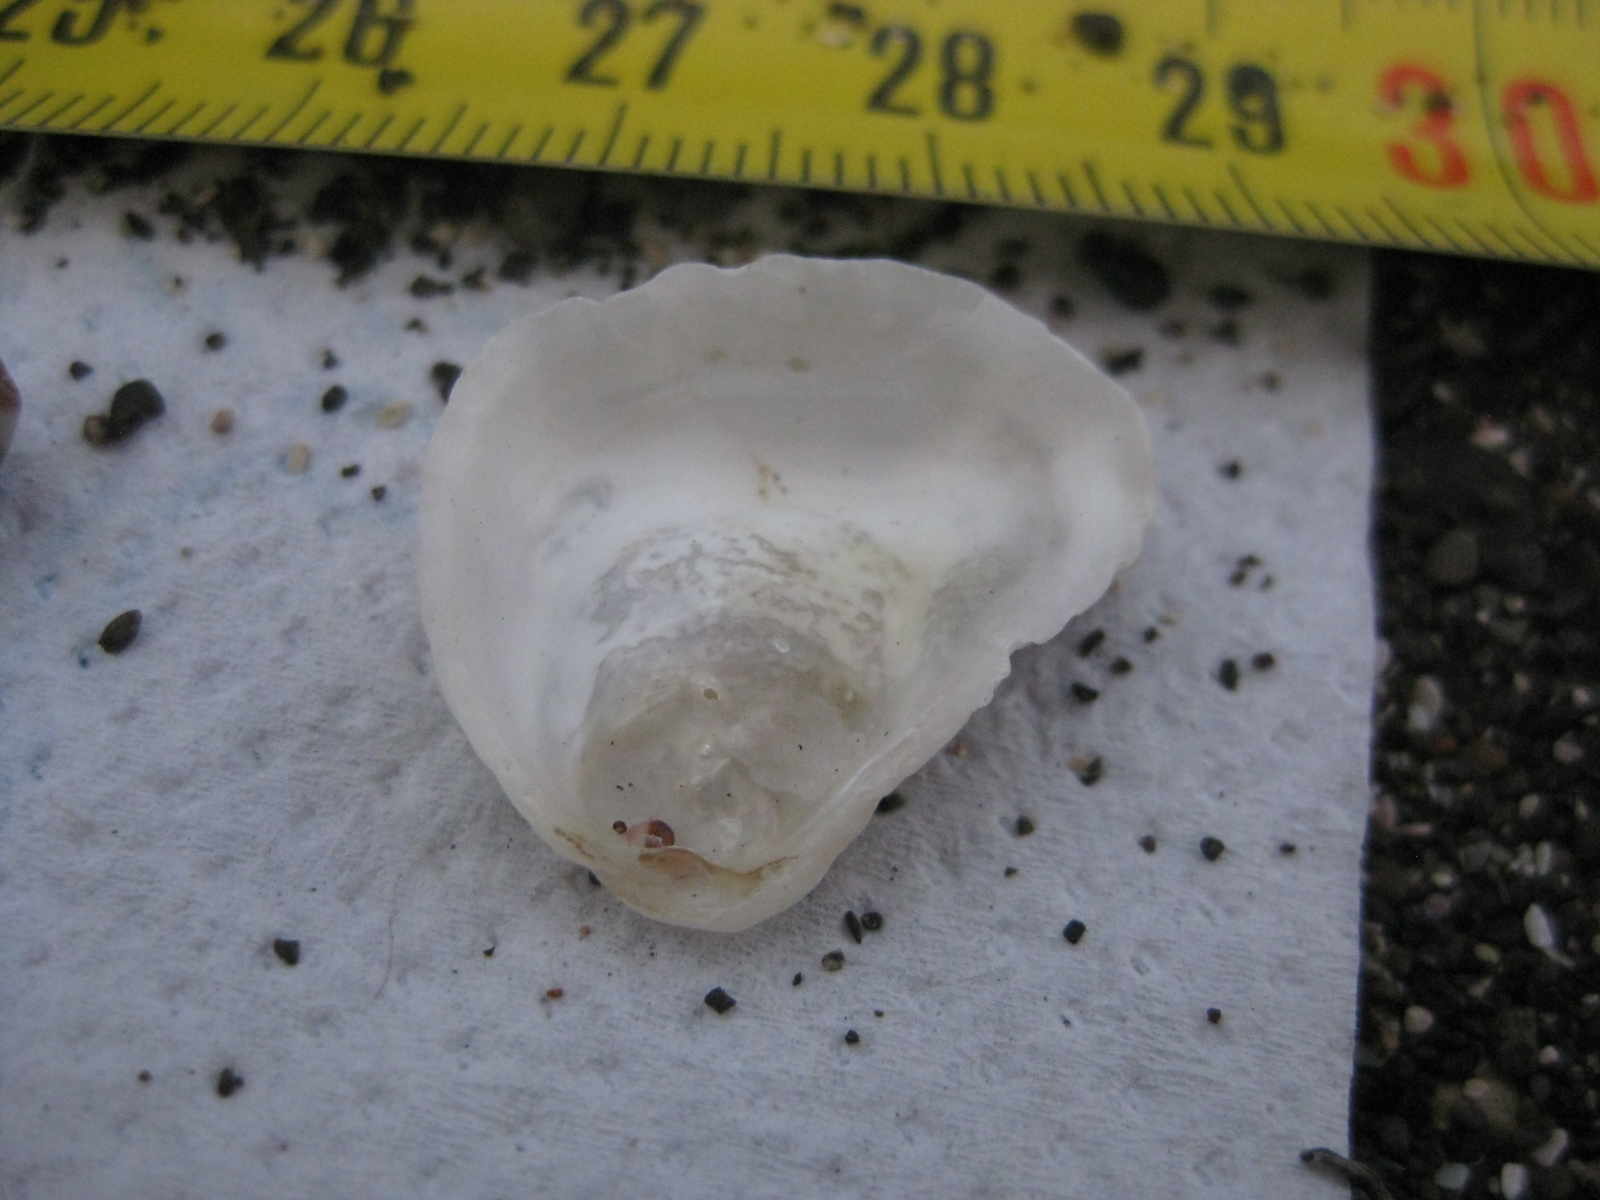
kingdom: Animalia
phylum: Mollusca
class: Bivalvia
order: Ostreida
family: Ostreidae
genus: Ostrea
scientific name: Ostrea chilensis
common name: Chilean oyster
